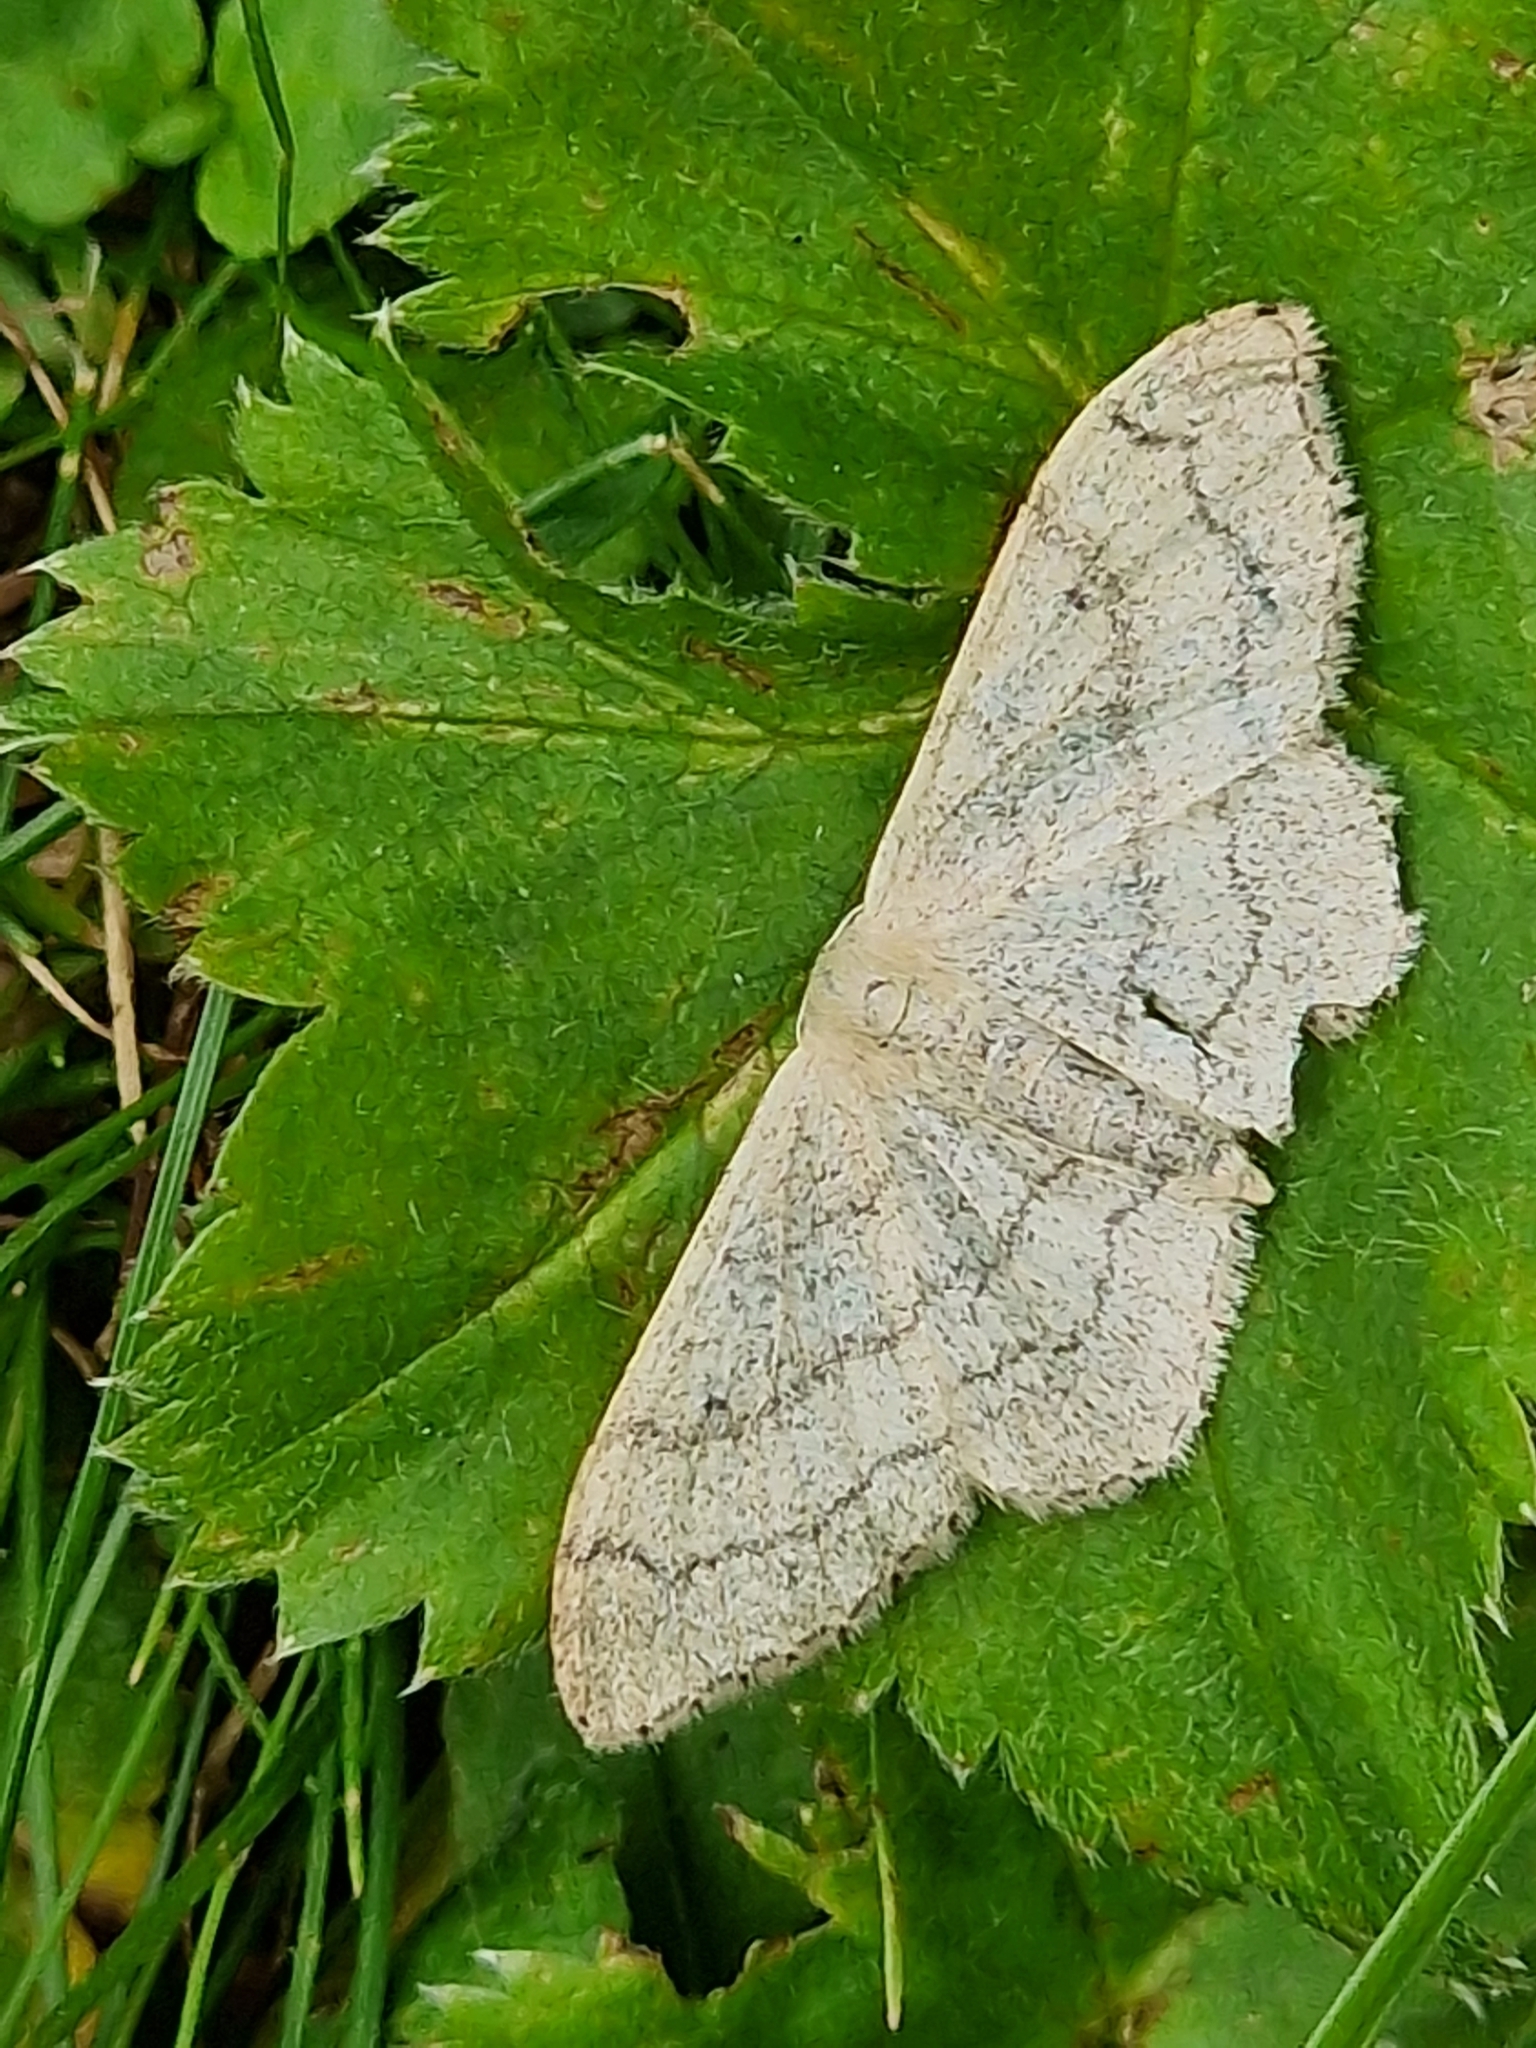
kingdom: Animalia
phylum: Arthropoda
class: Insecta
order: Lepidoptera
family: Geometridae
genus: Idaea
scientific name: Idaea aversata
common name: Riband wave
